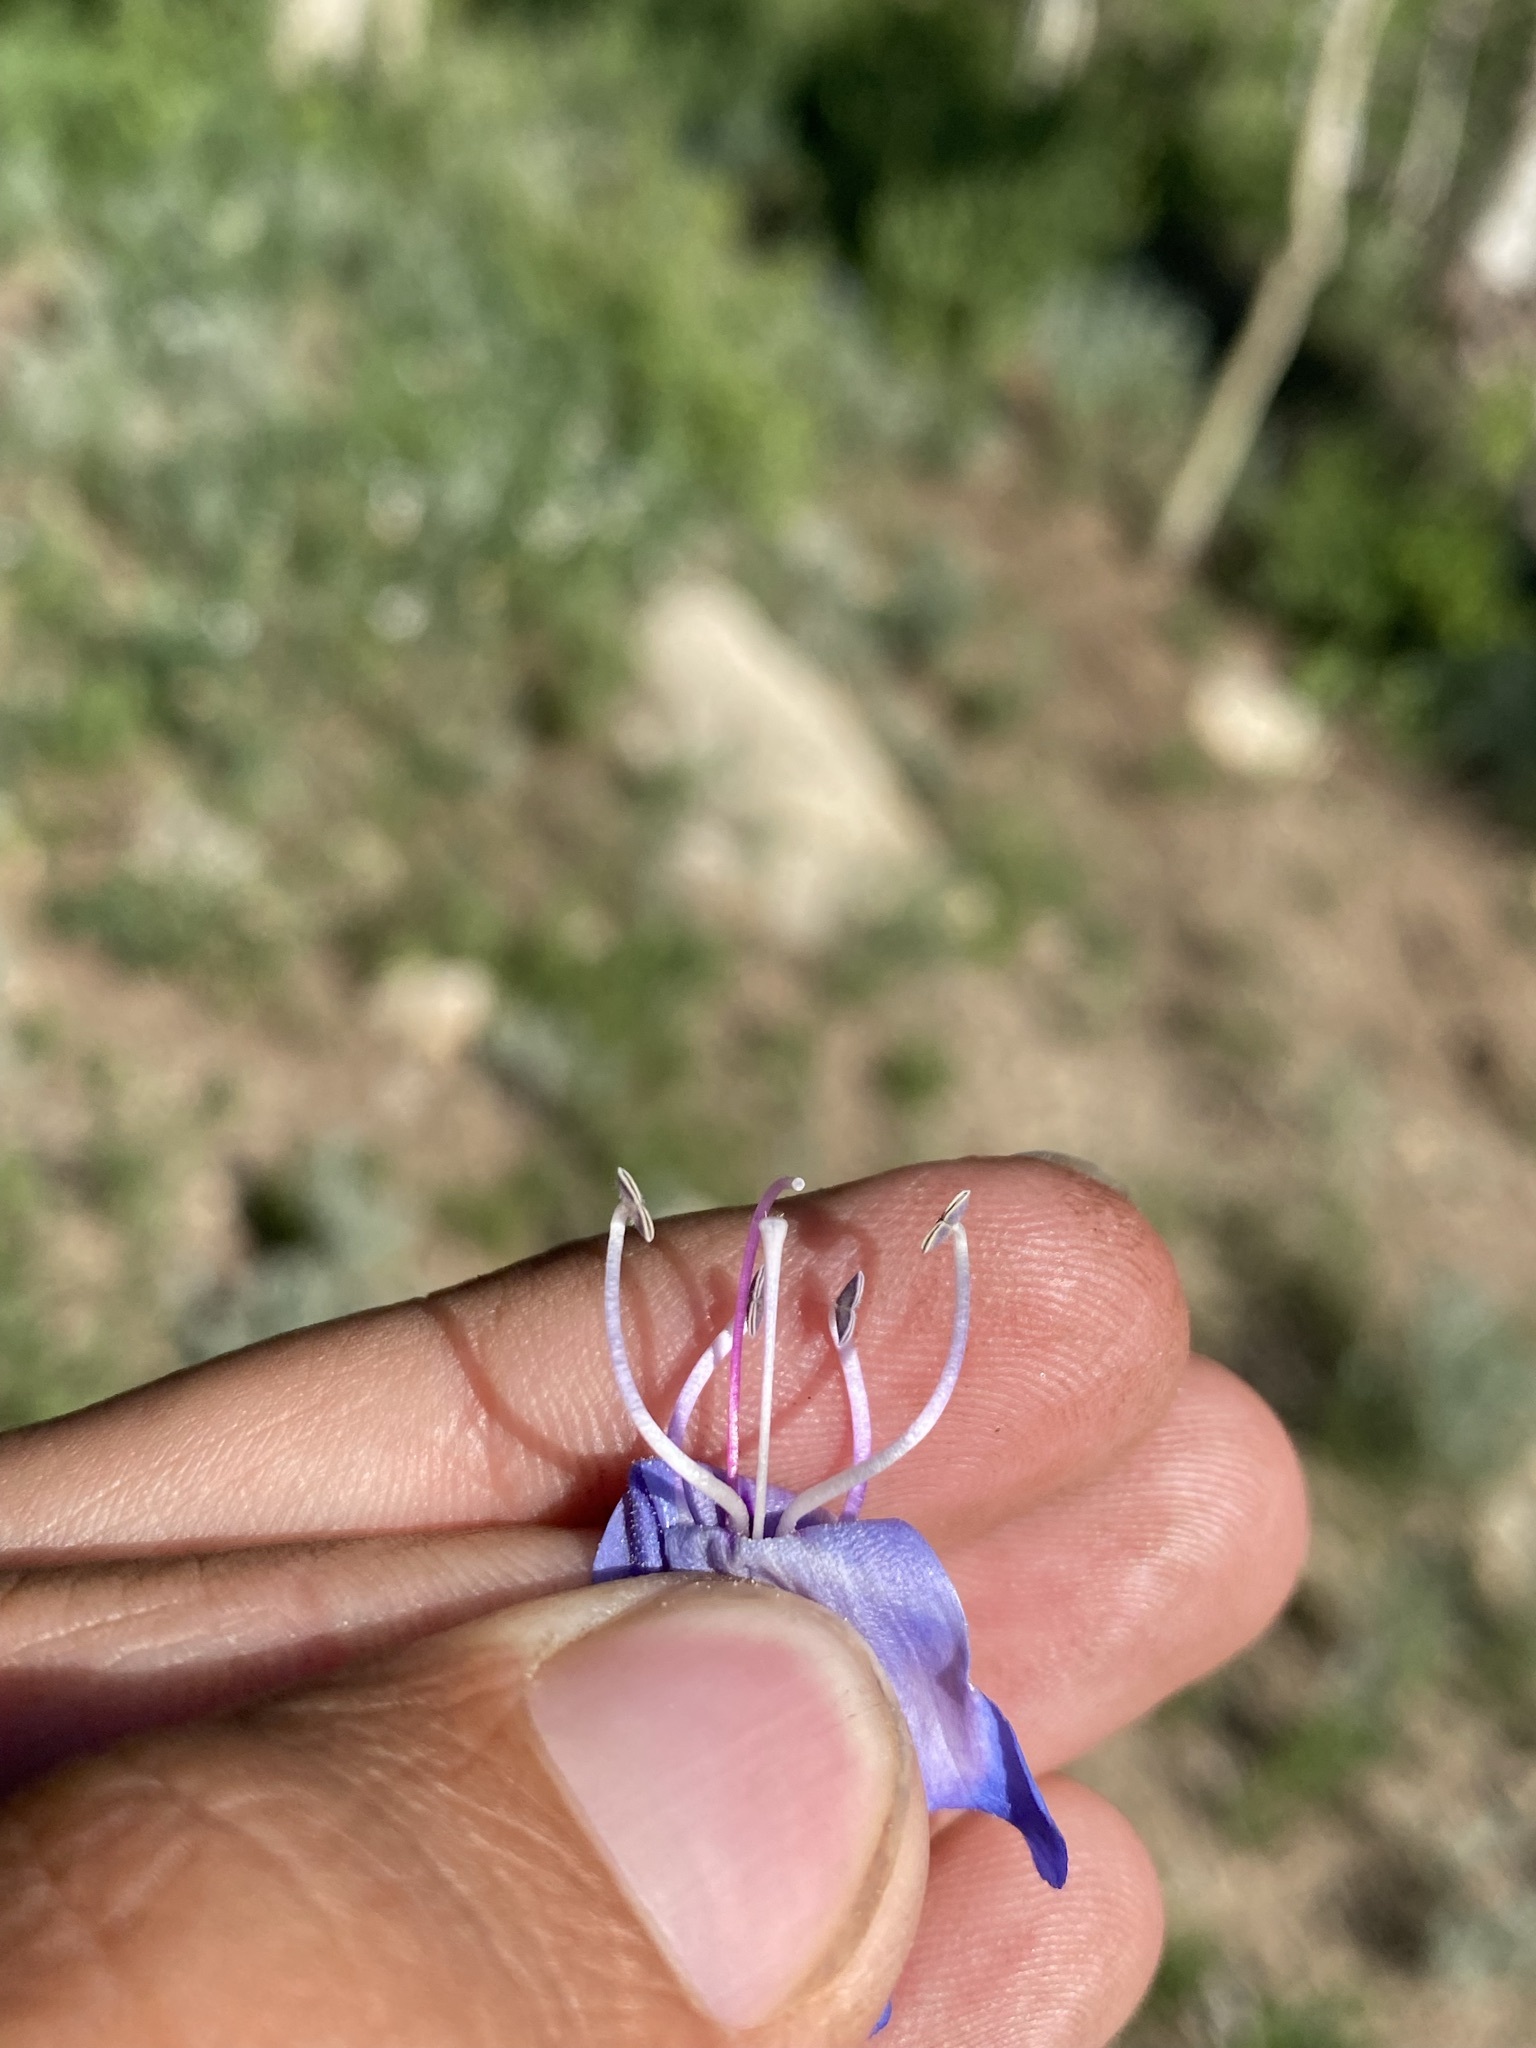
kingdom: Plantae
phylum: Tracheophyta
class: Magnoliopsida
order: Lamiales
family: Plantaginaceae
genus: Penstemon
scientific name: Penstemon subglaber
